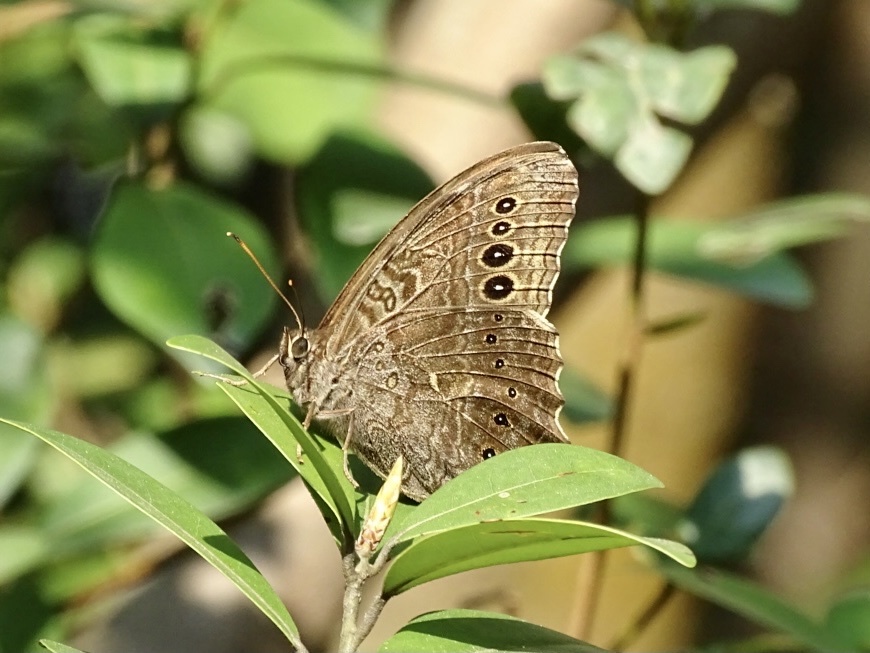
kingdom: Animalia
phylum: Arthropoda
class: Insecta
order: Lepidoptera
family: Nymphalidae
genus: Neope
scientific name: Neope muirheadii
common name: Black-spotted labyrinth
